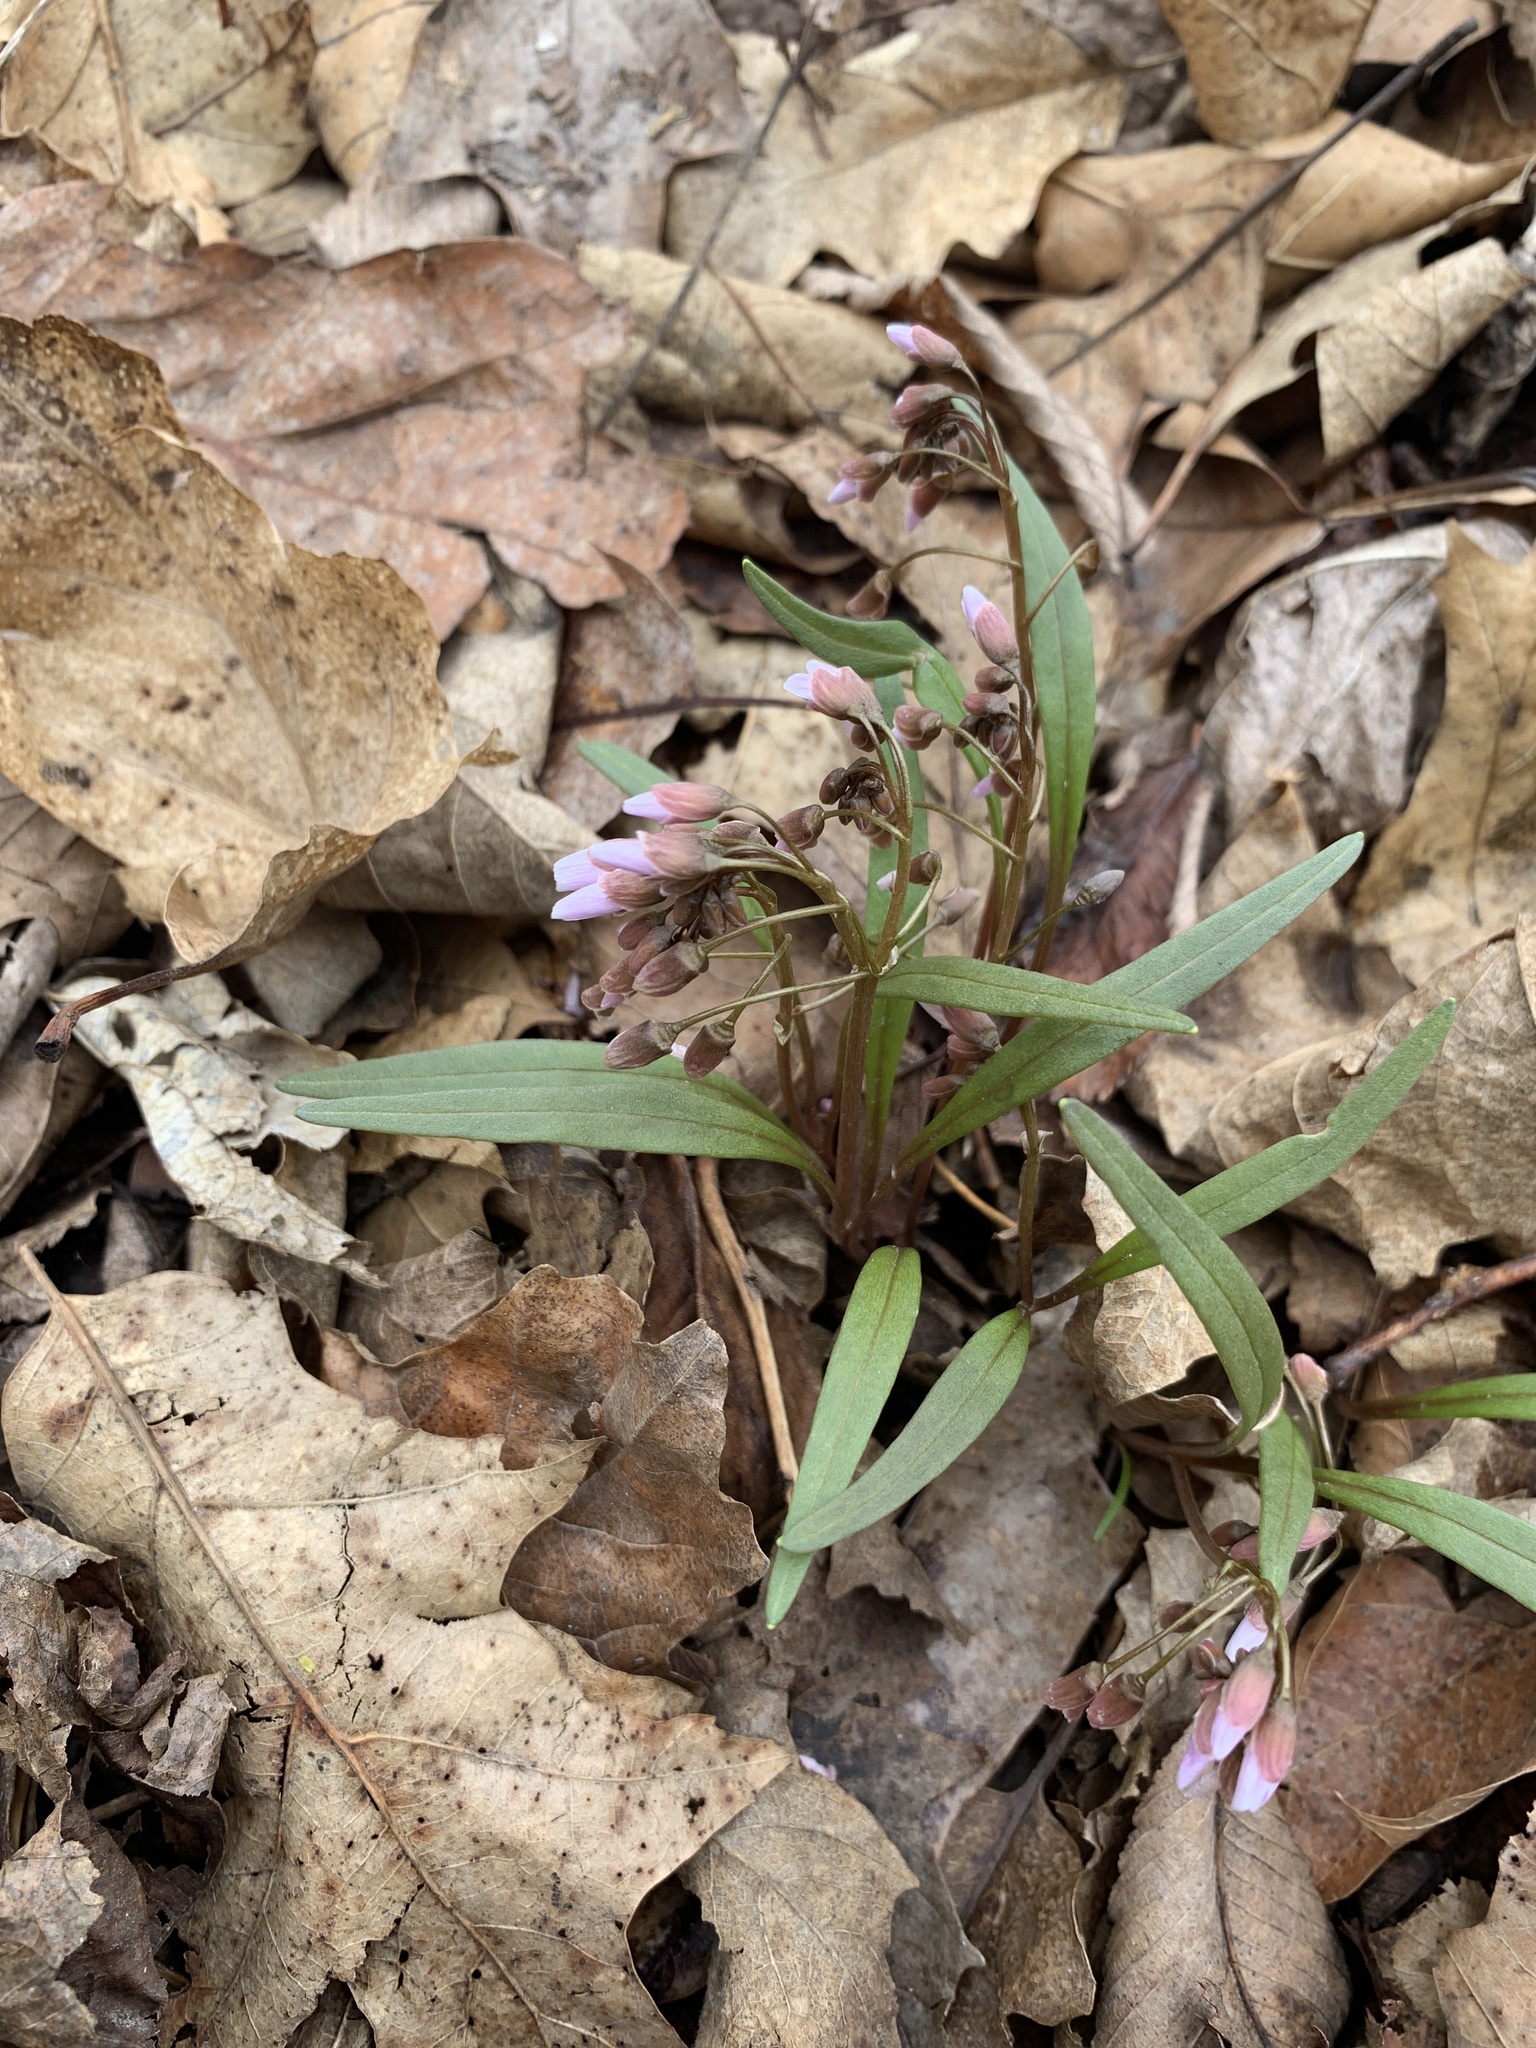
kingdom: Plantae
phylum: Tracheophyta
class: Magnoliopsida
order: Caryophyllales
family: Montiaceae
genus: Claytonia
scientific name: Claytonia virginica
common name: Virginia springbeauty
